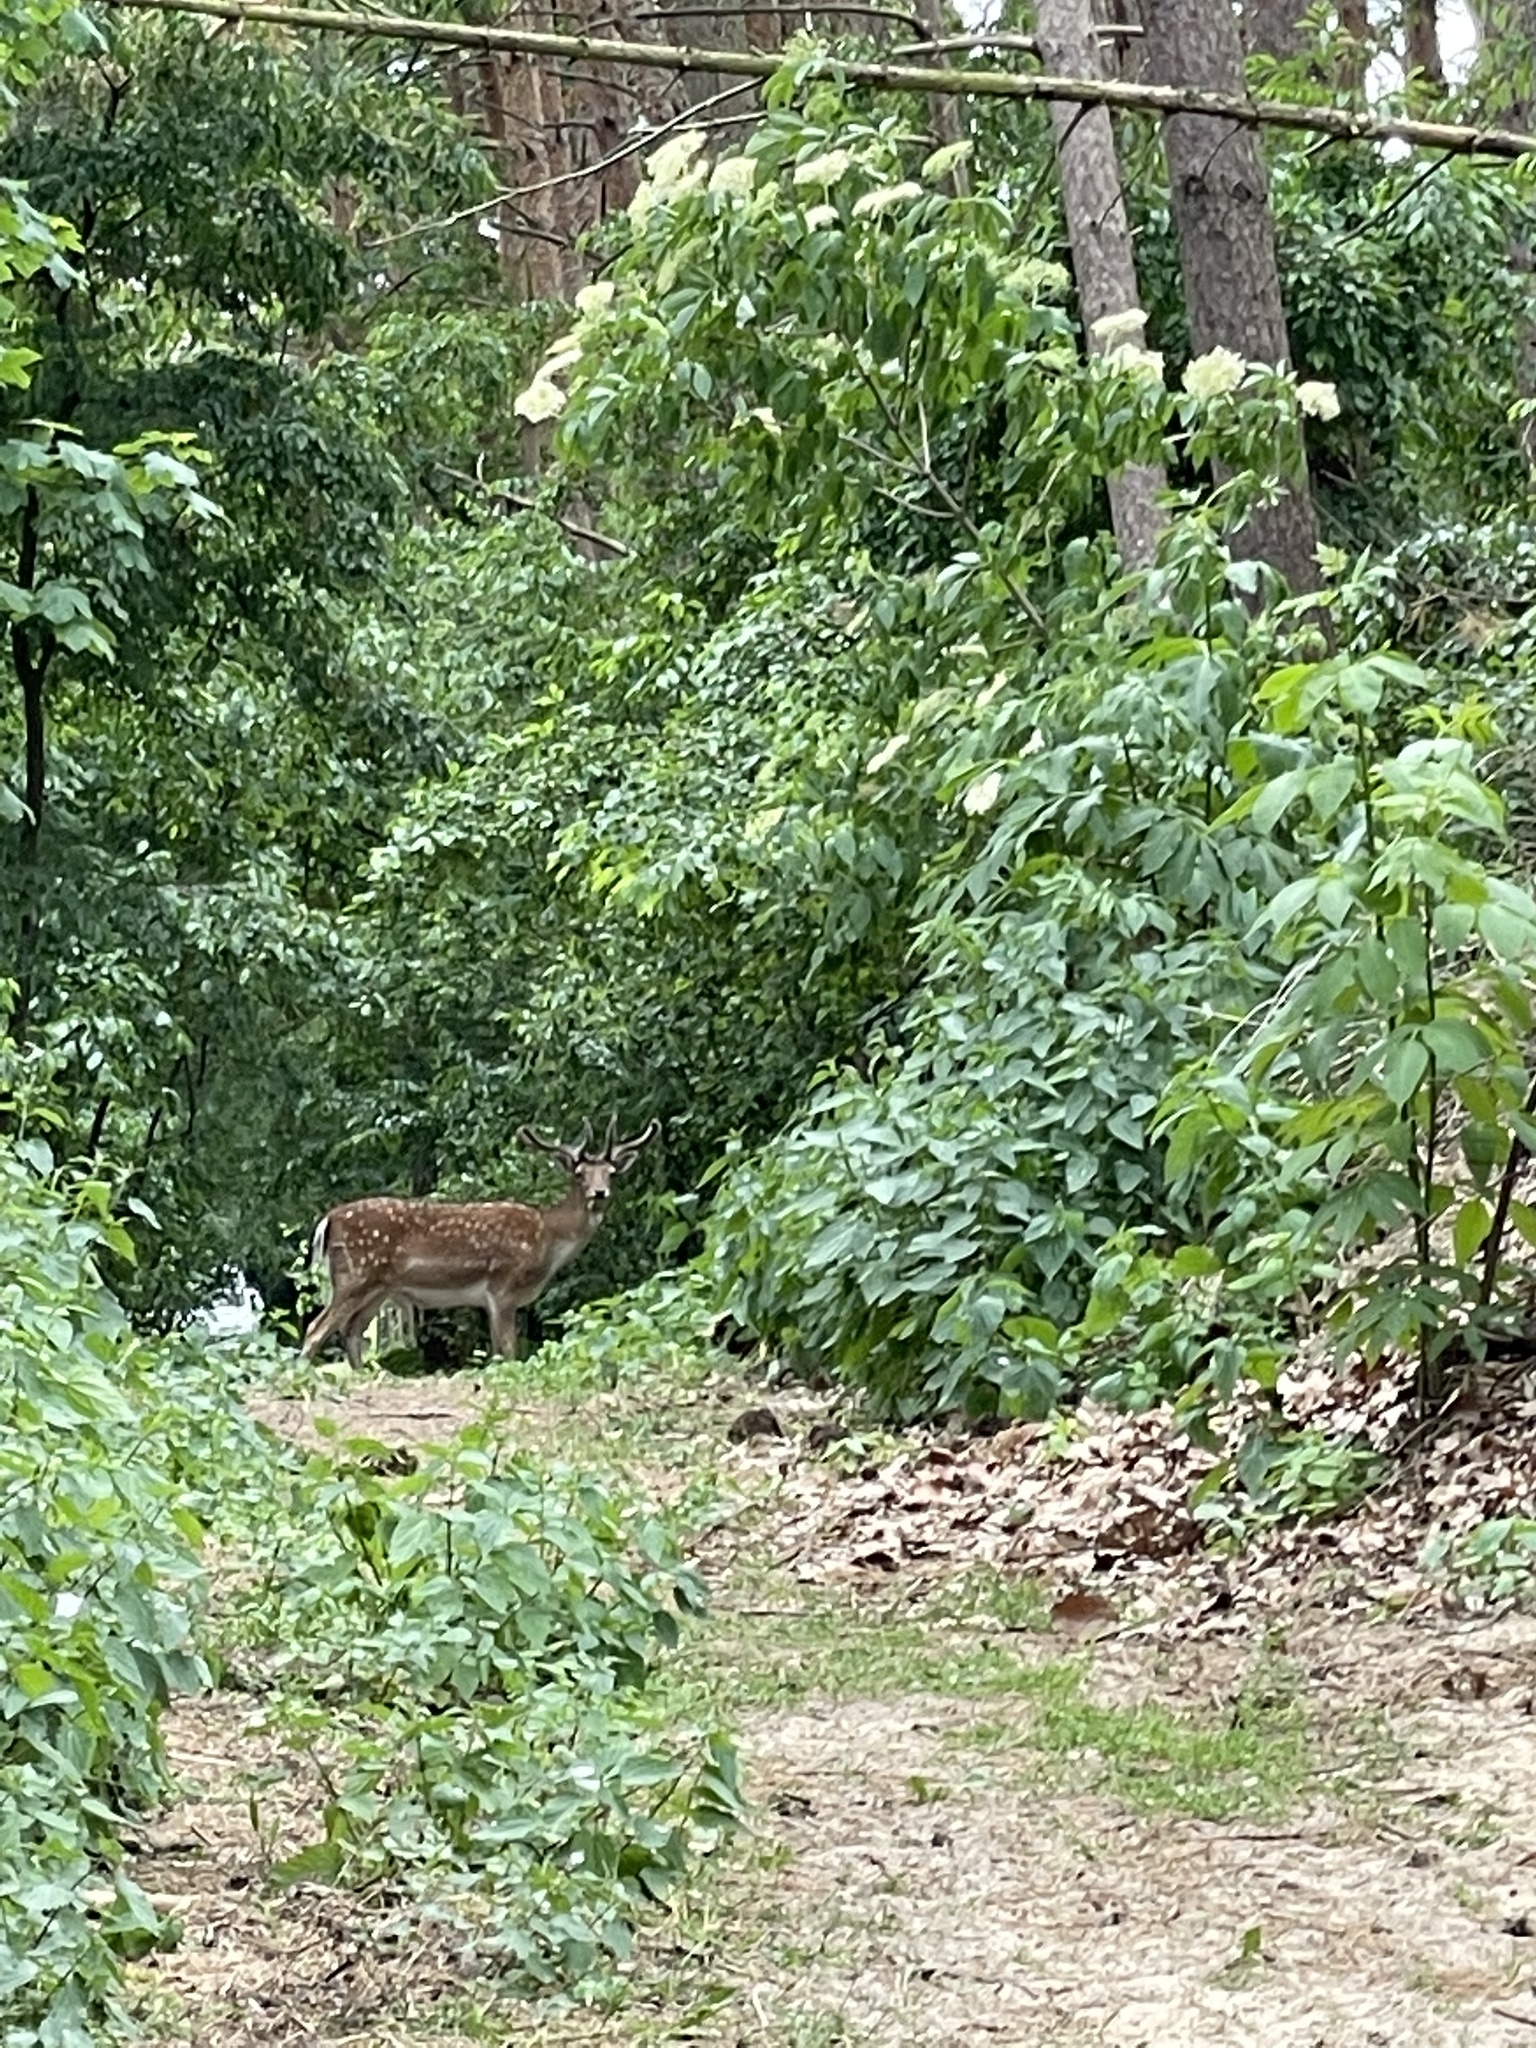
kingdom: Animalia
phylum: Chordata
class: Mammalia
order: Artiodactyla
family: Cervidae
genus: Dama
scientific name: Dama dama
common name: Fallow deer
